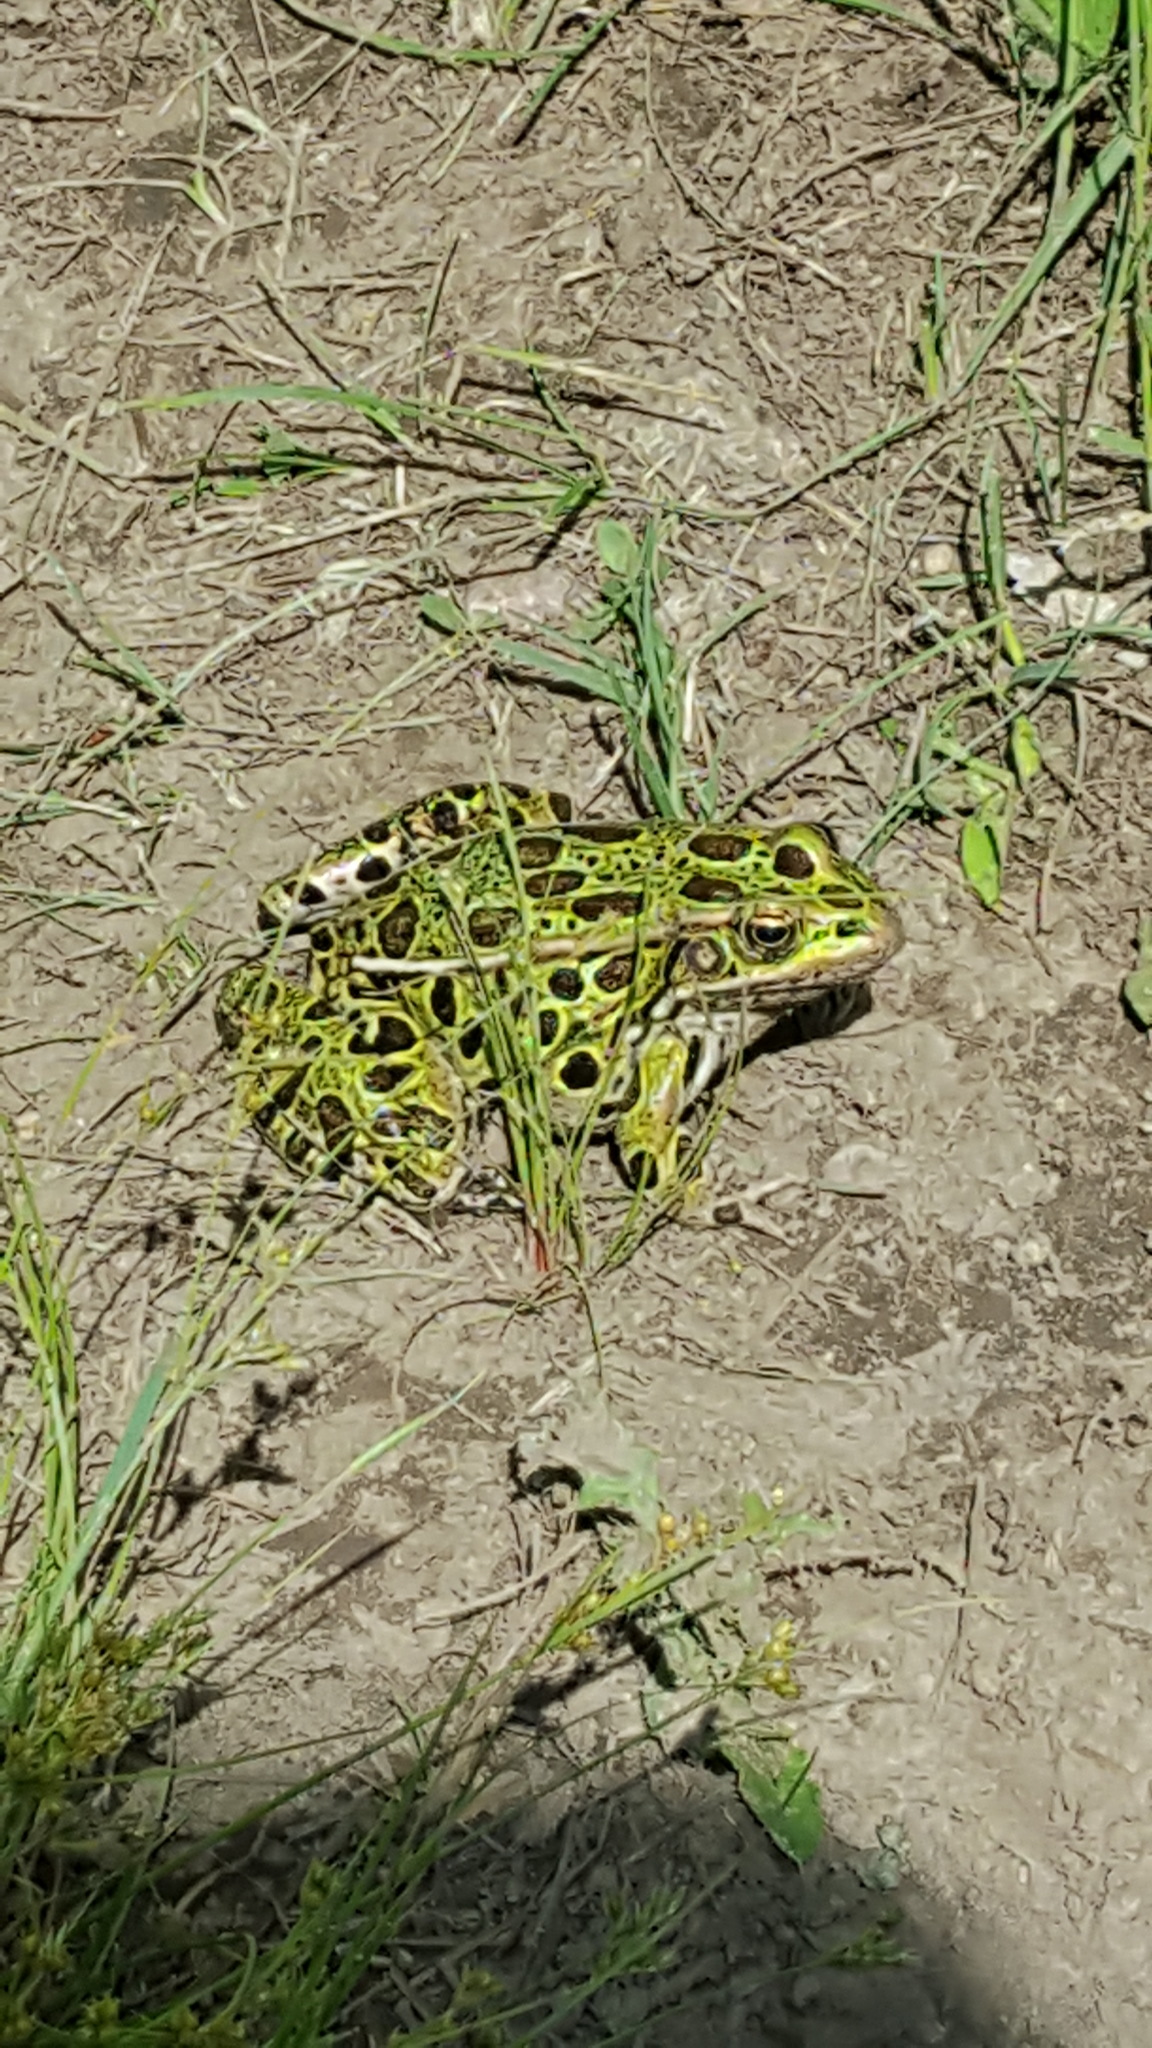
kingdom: Animalia
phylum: Chordata
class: Amphibia
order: Anura
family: Ranidae
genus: Lithobates
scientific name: Lithobates pipiens
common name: Northern leopard frog
